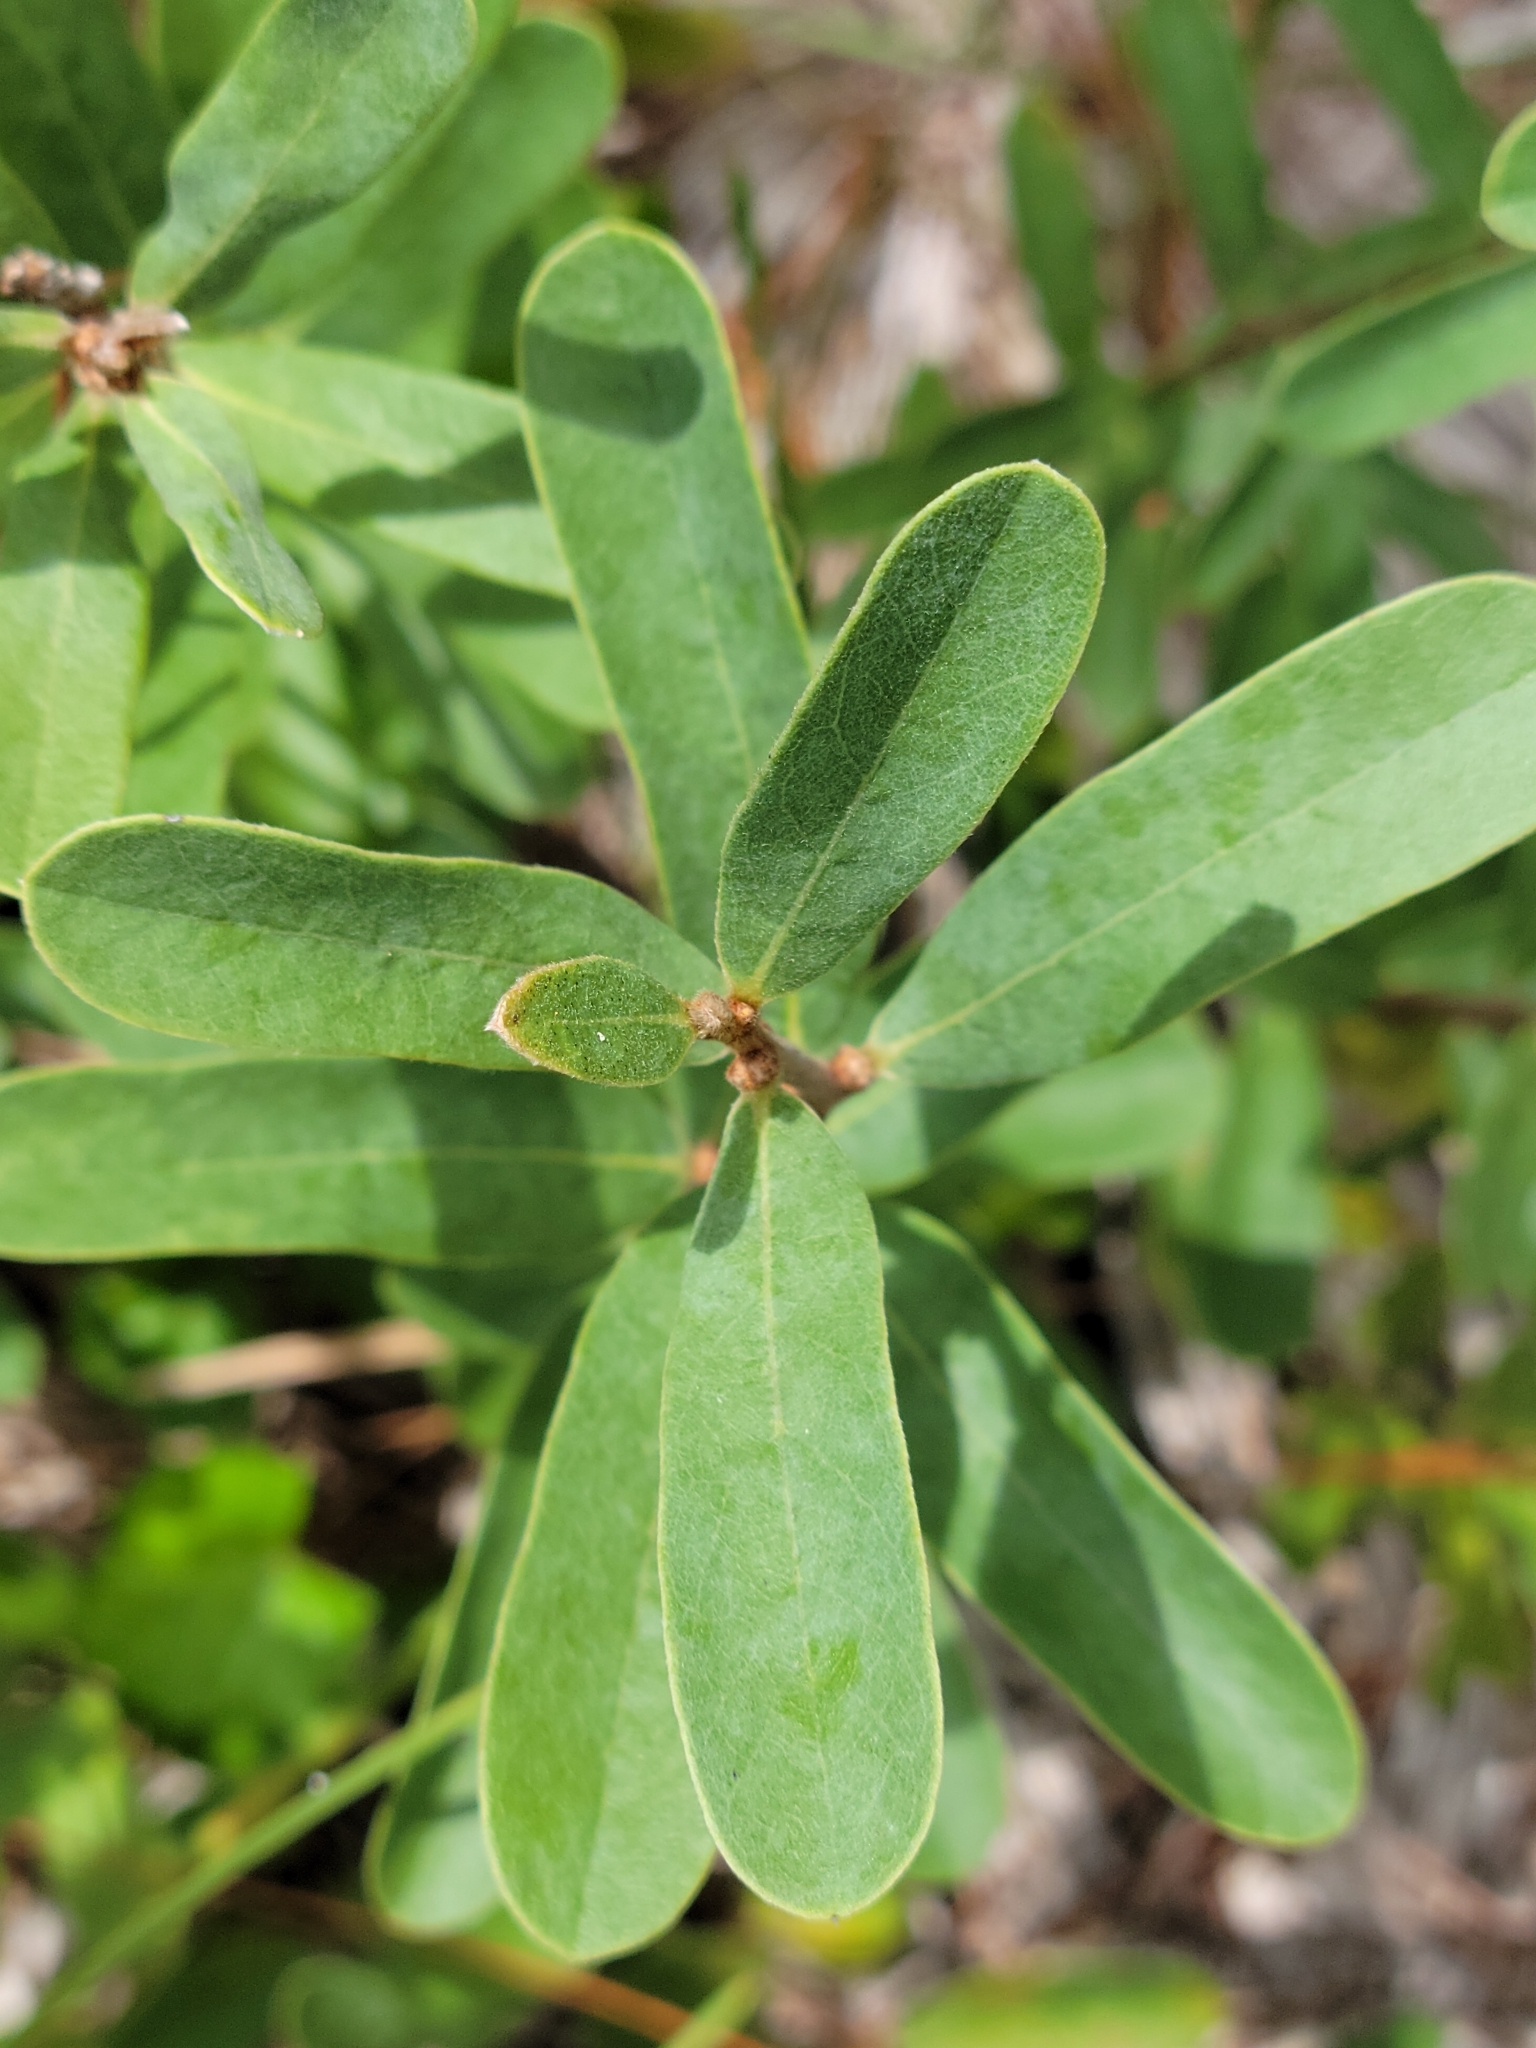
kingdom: Plantae
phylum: Tracheophyta
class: Magnoliopsida
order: Magnoliales
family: Annonaceae
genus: Asimina
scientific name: Asimina reticulata
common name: Flag pawpaw
